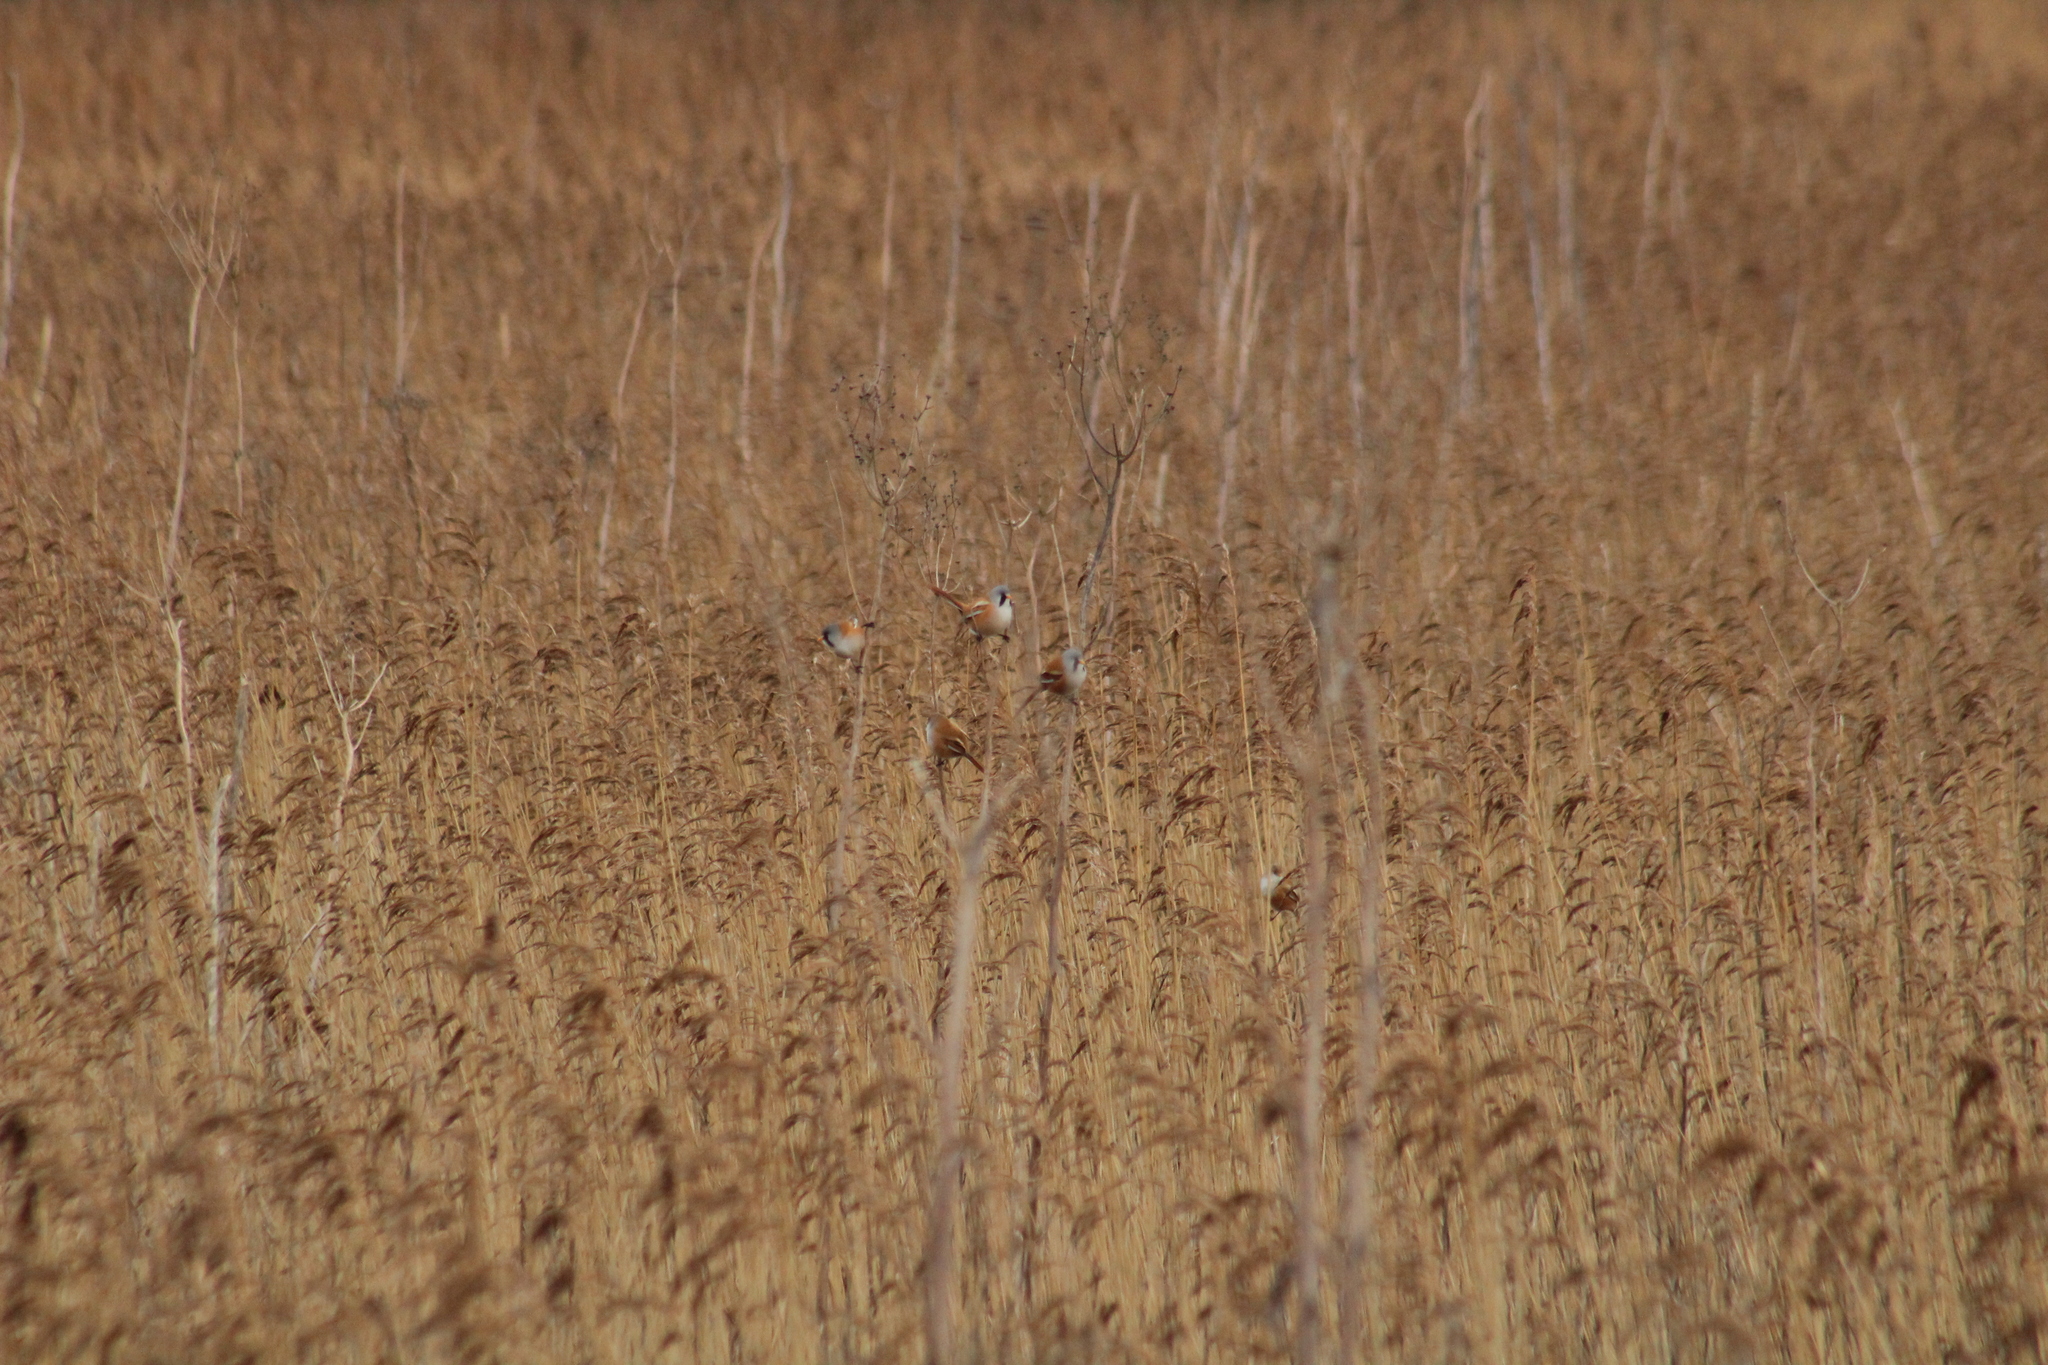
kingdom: Animalia
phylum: Chordata
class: Aves
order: Passeriformes
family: Panuridae
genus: Panurus
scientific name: Panurus biarmicus
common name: Bearded reedling
